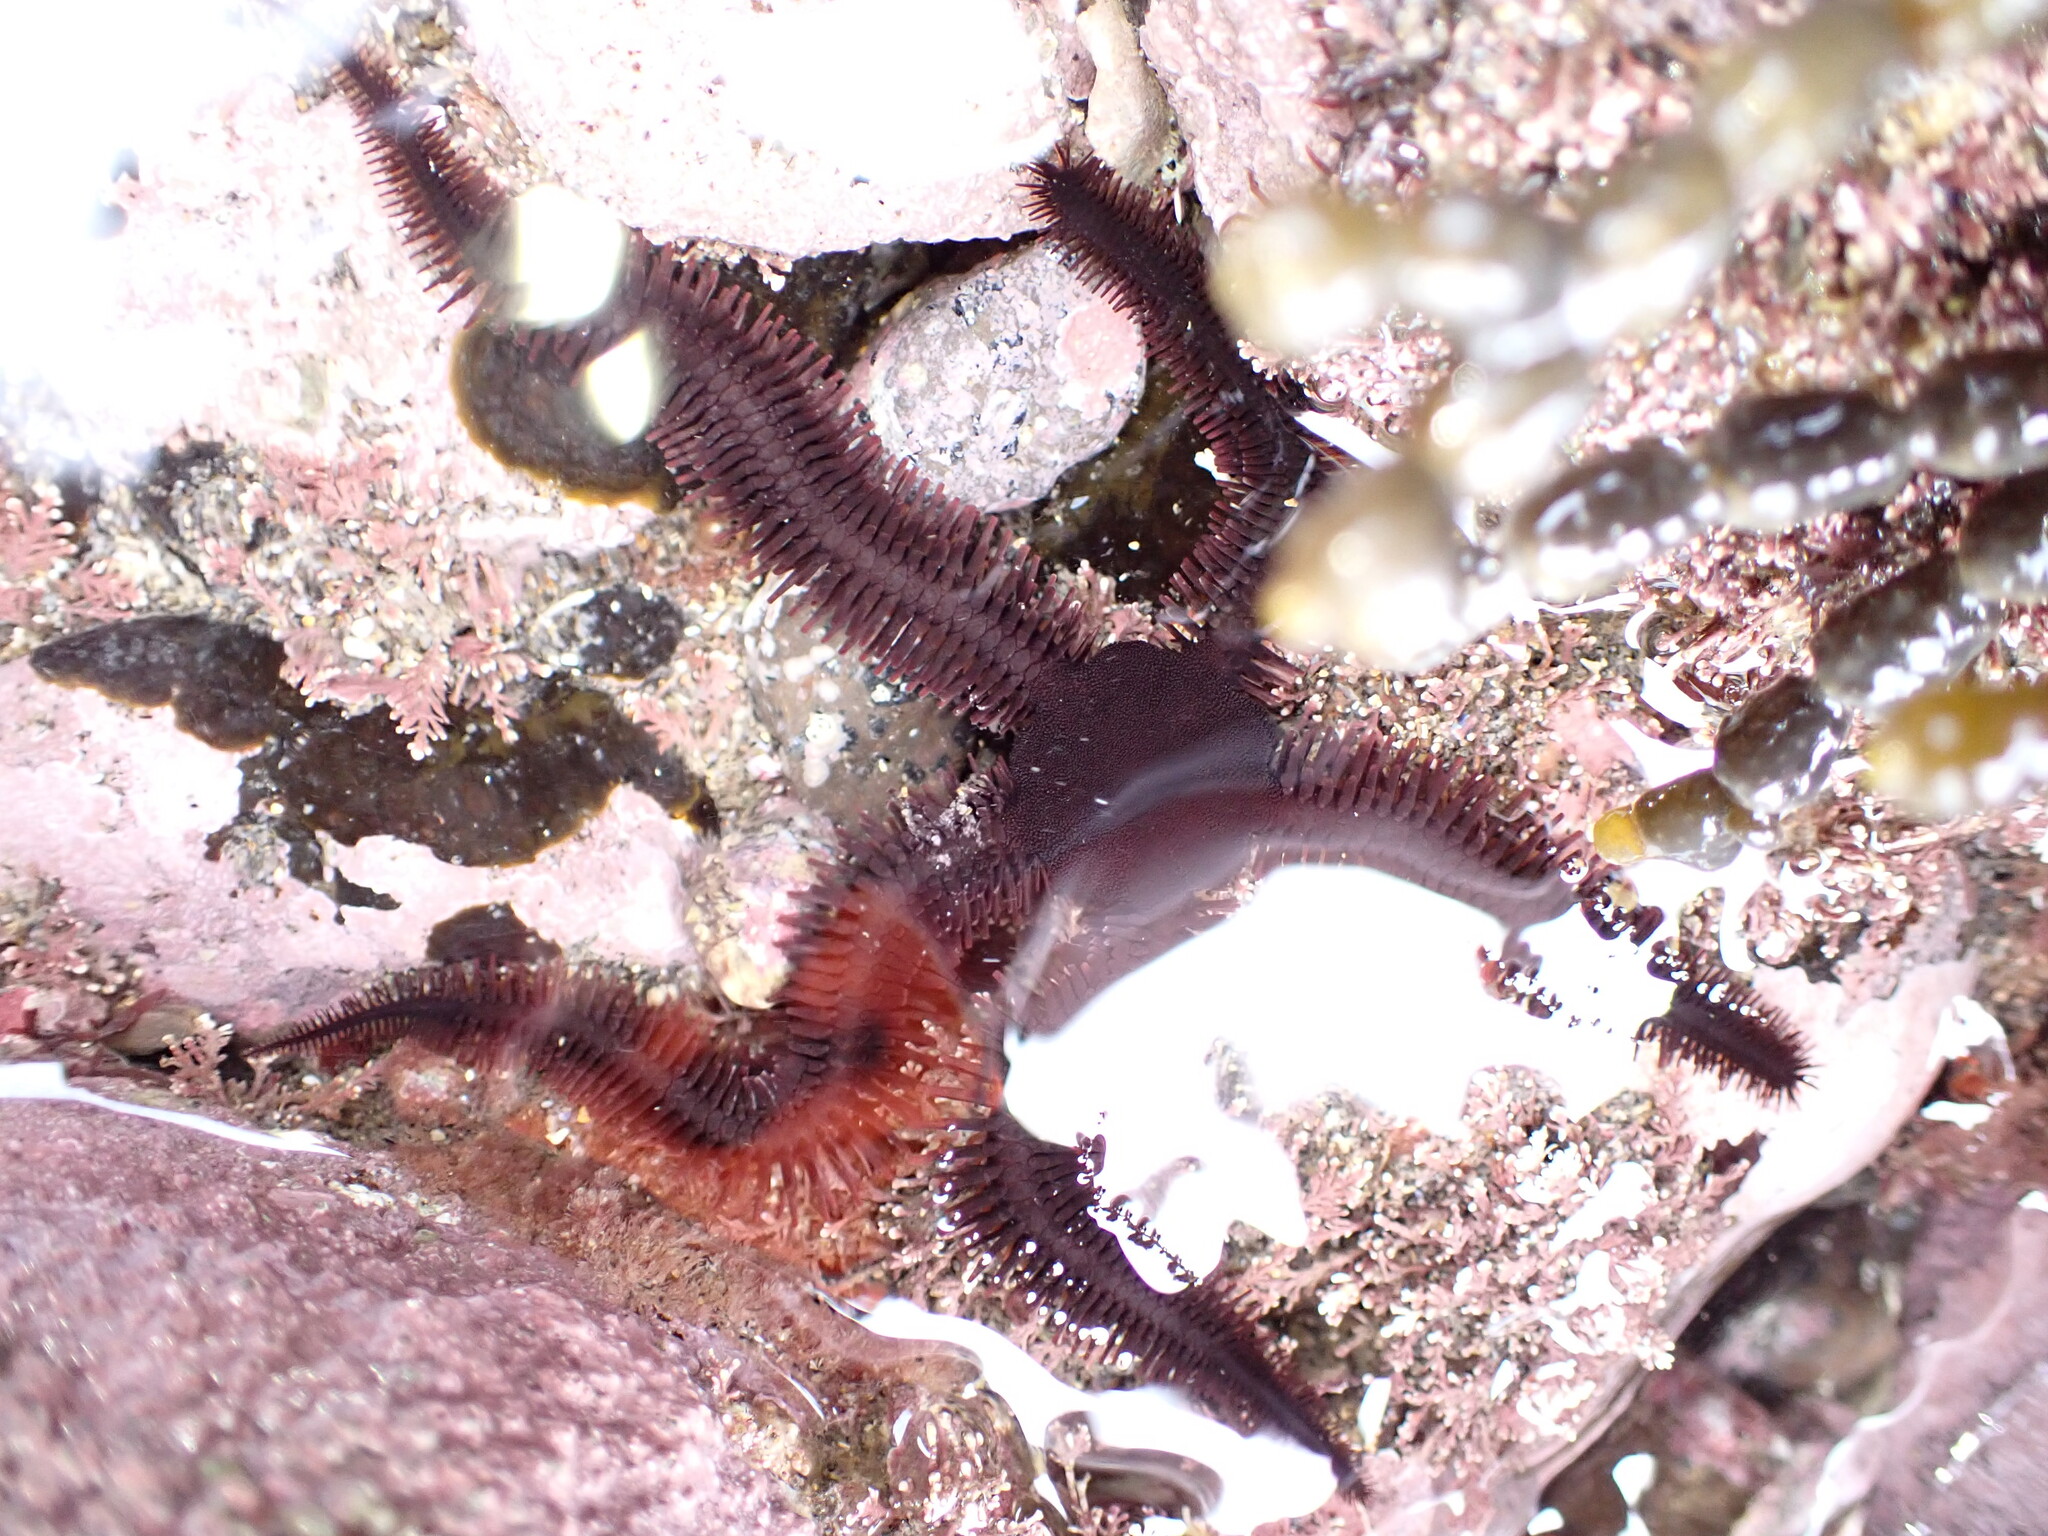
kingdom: Animalia
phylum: Echinodermata
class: Ophiuroidea
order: Ophiacanthida
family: Ophiopteridae
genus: Ophiopteris
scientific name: Ophiopteris antipodum
